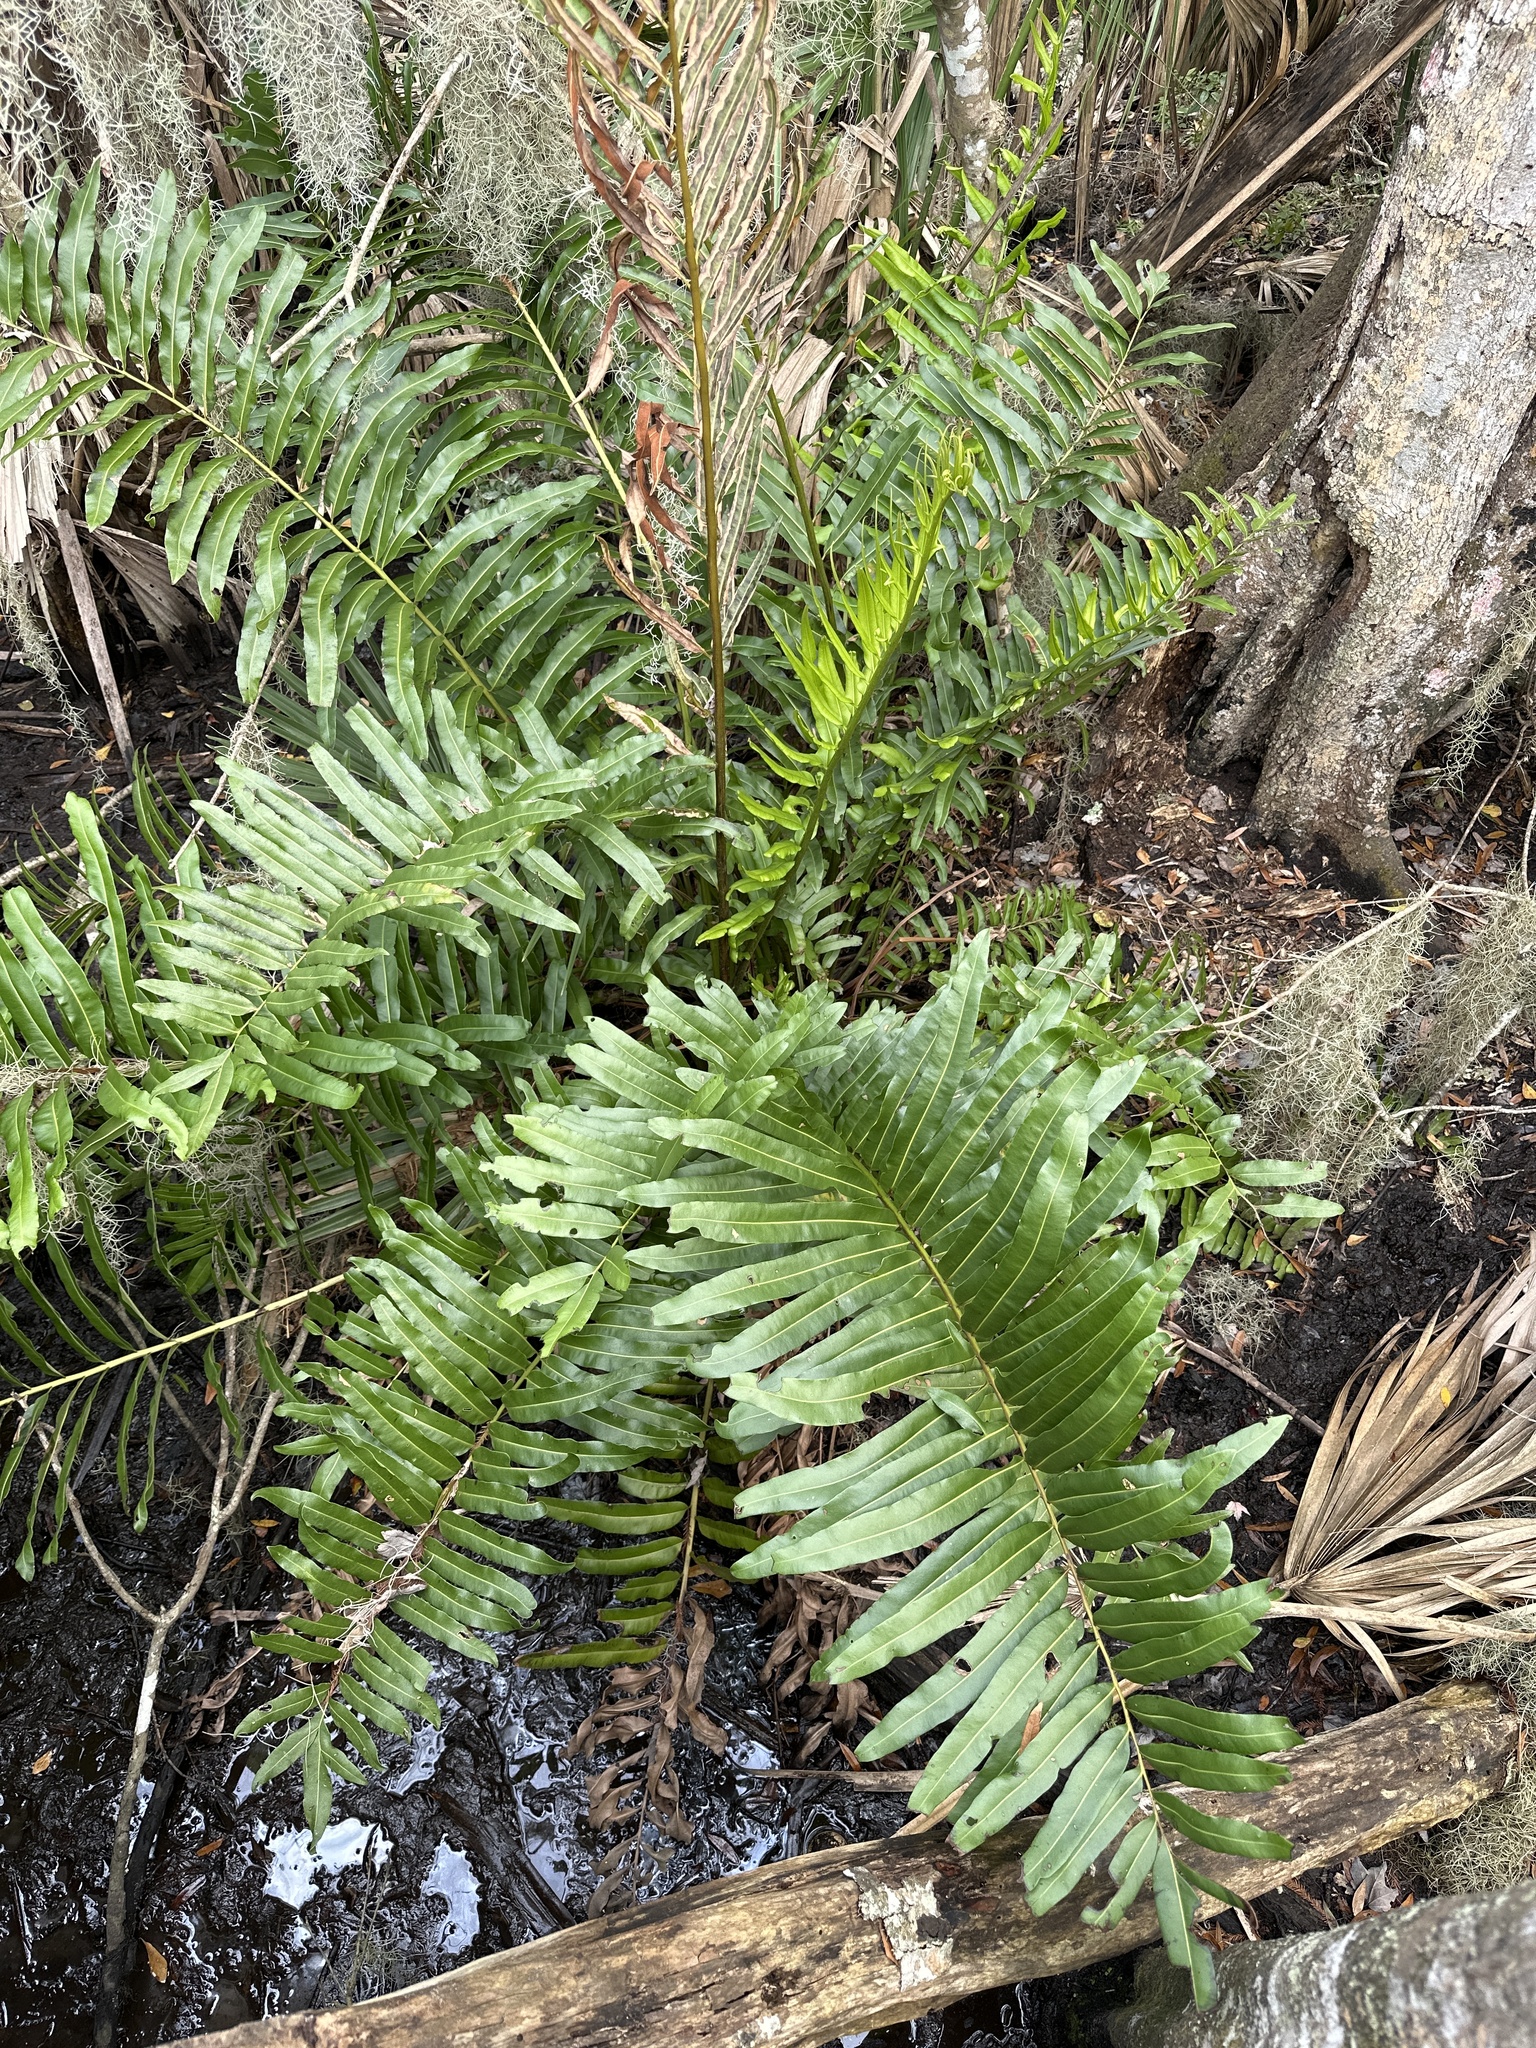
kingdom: Plantae
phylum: Tracheophyta
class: Polypodiopsida
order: Polypodiales
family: Pteridaceae
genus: Acrostichum
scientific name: Acrostichum danaeifolium
